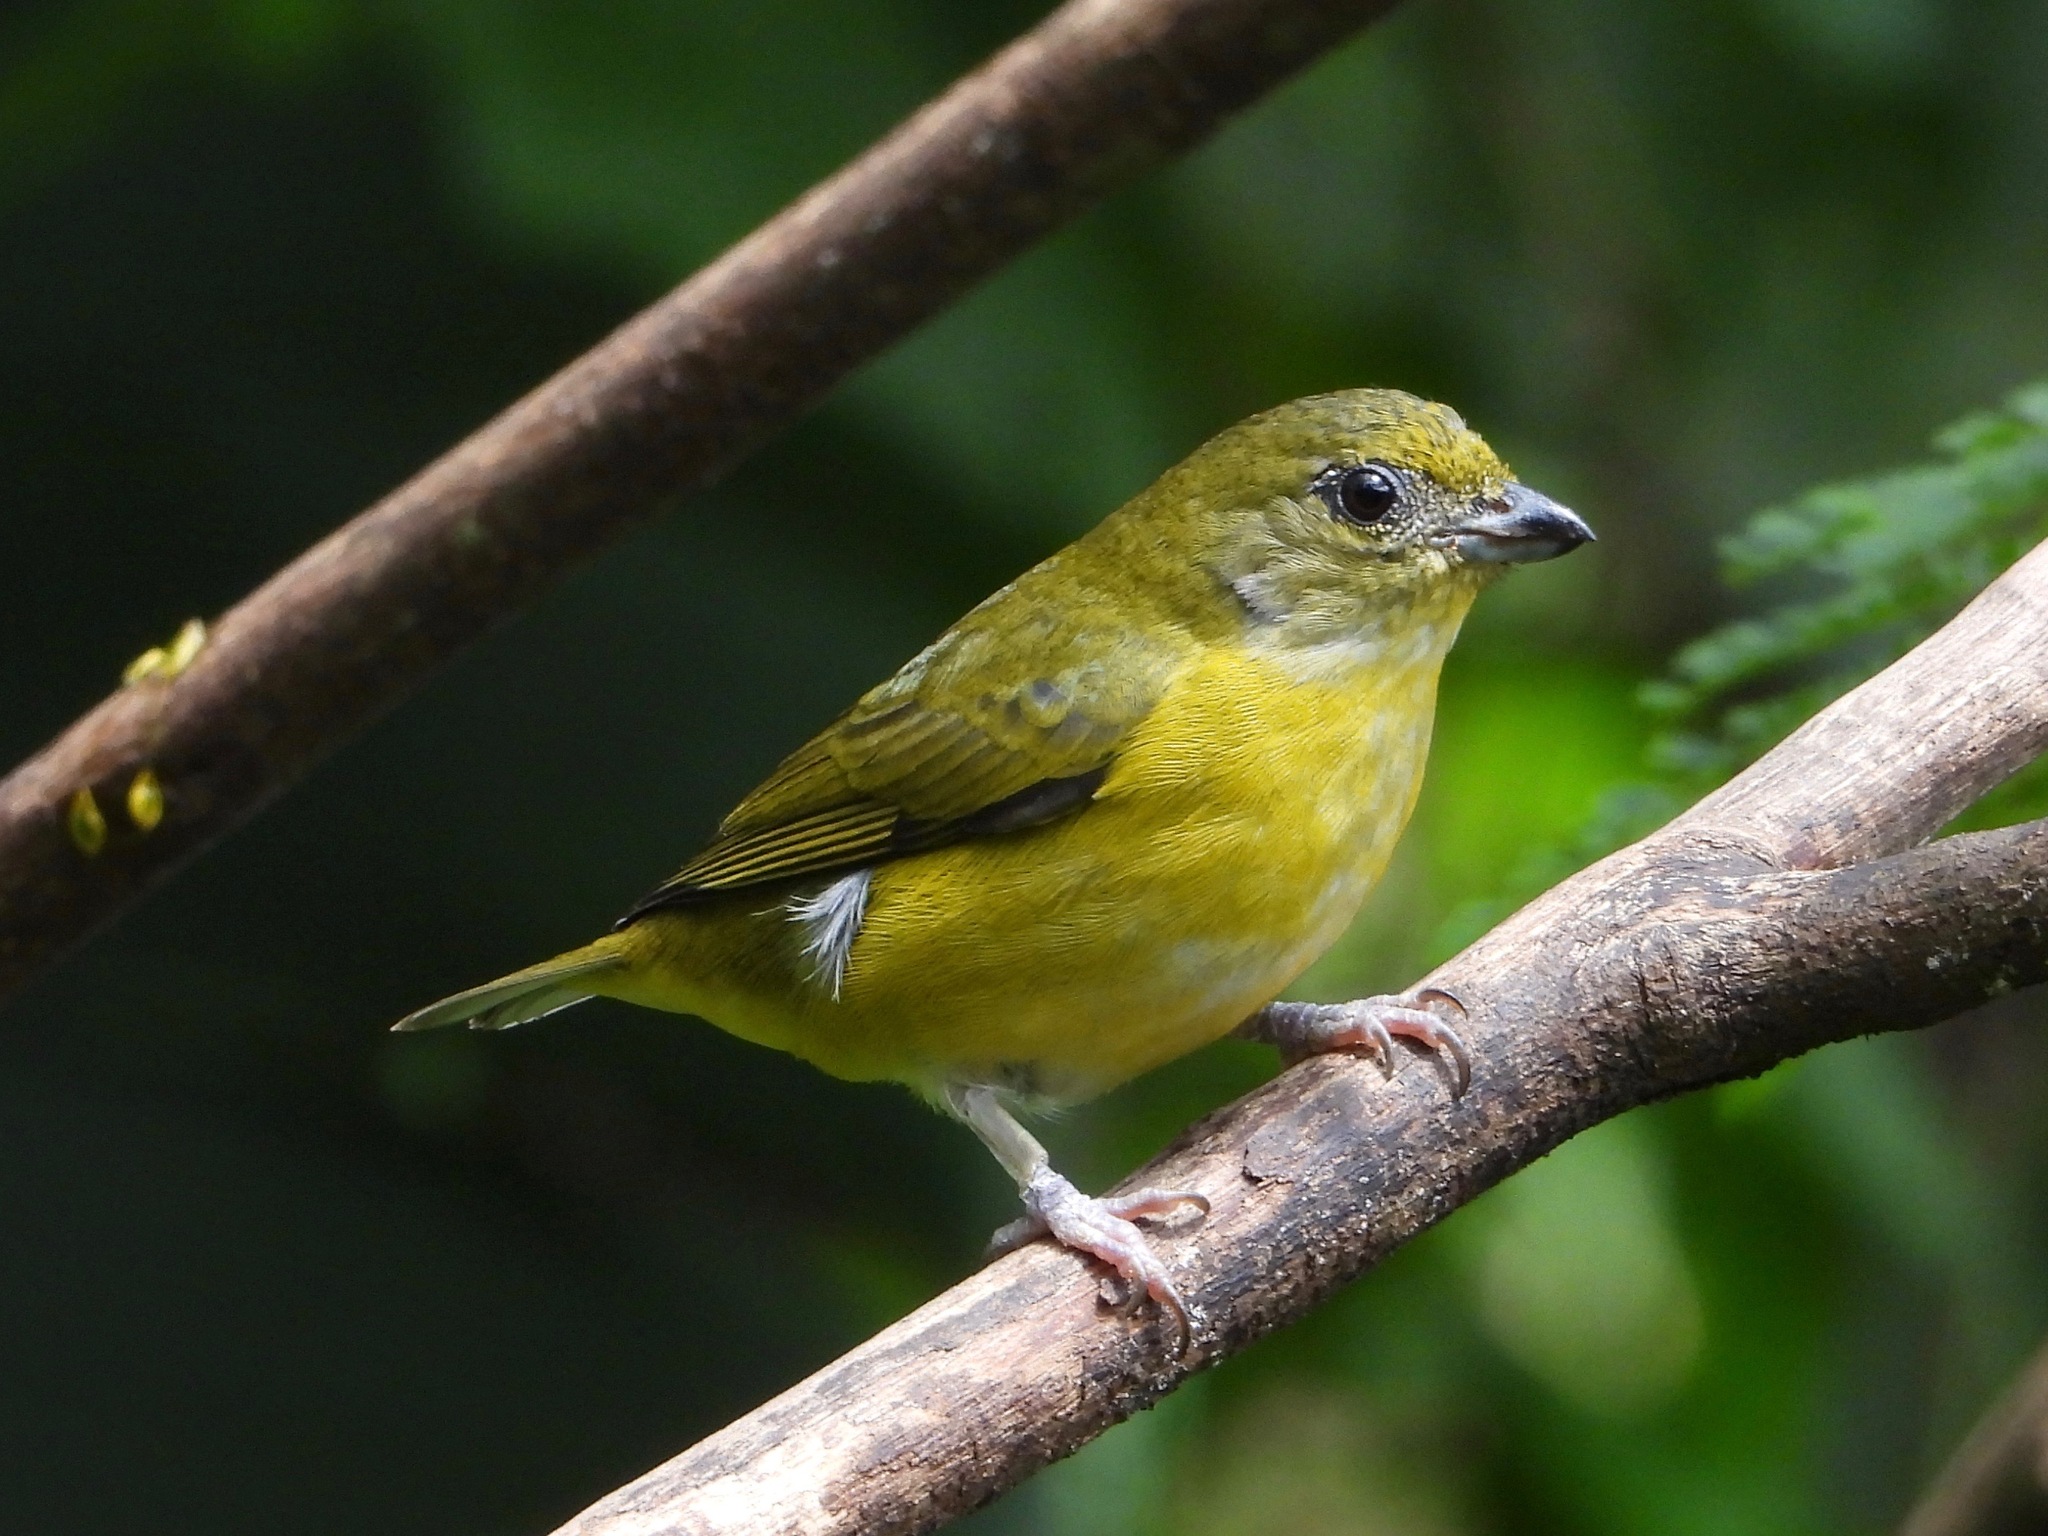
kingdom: Animalia
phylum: Chordata
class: Aves
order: Passeriformes
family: Fringillidae
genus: Euphonia
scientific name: Euphonia hirundinacea
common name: Yellow-throated euphonia
